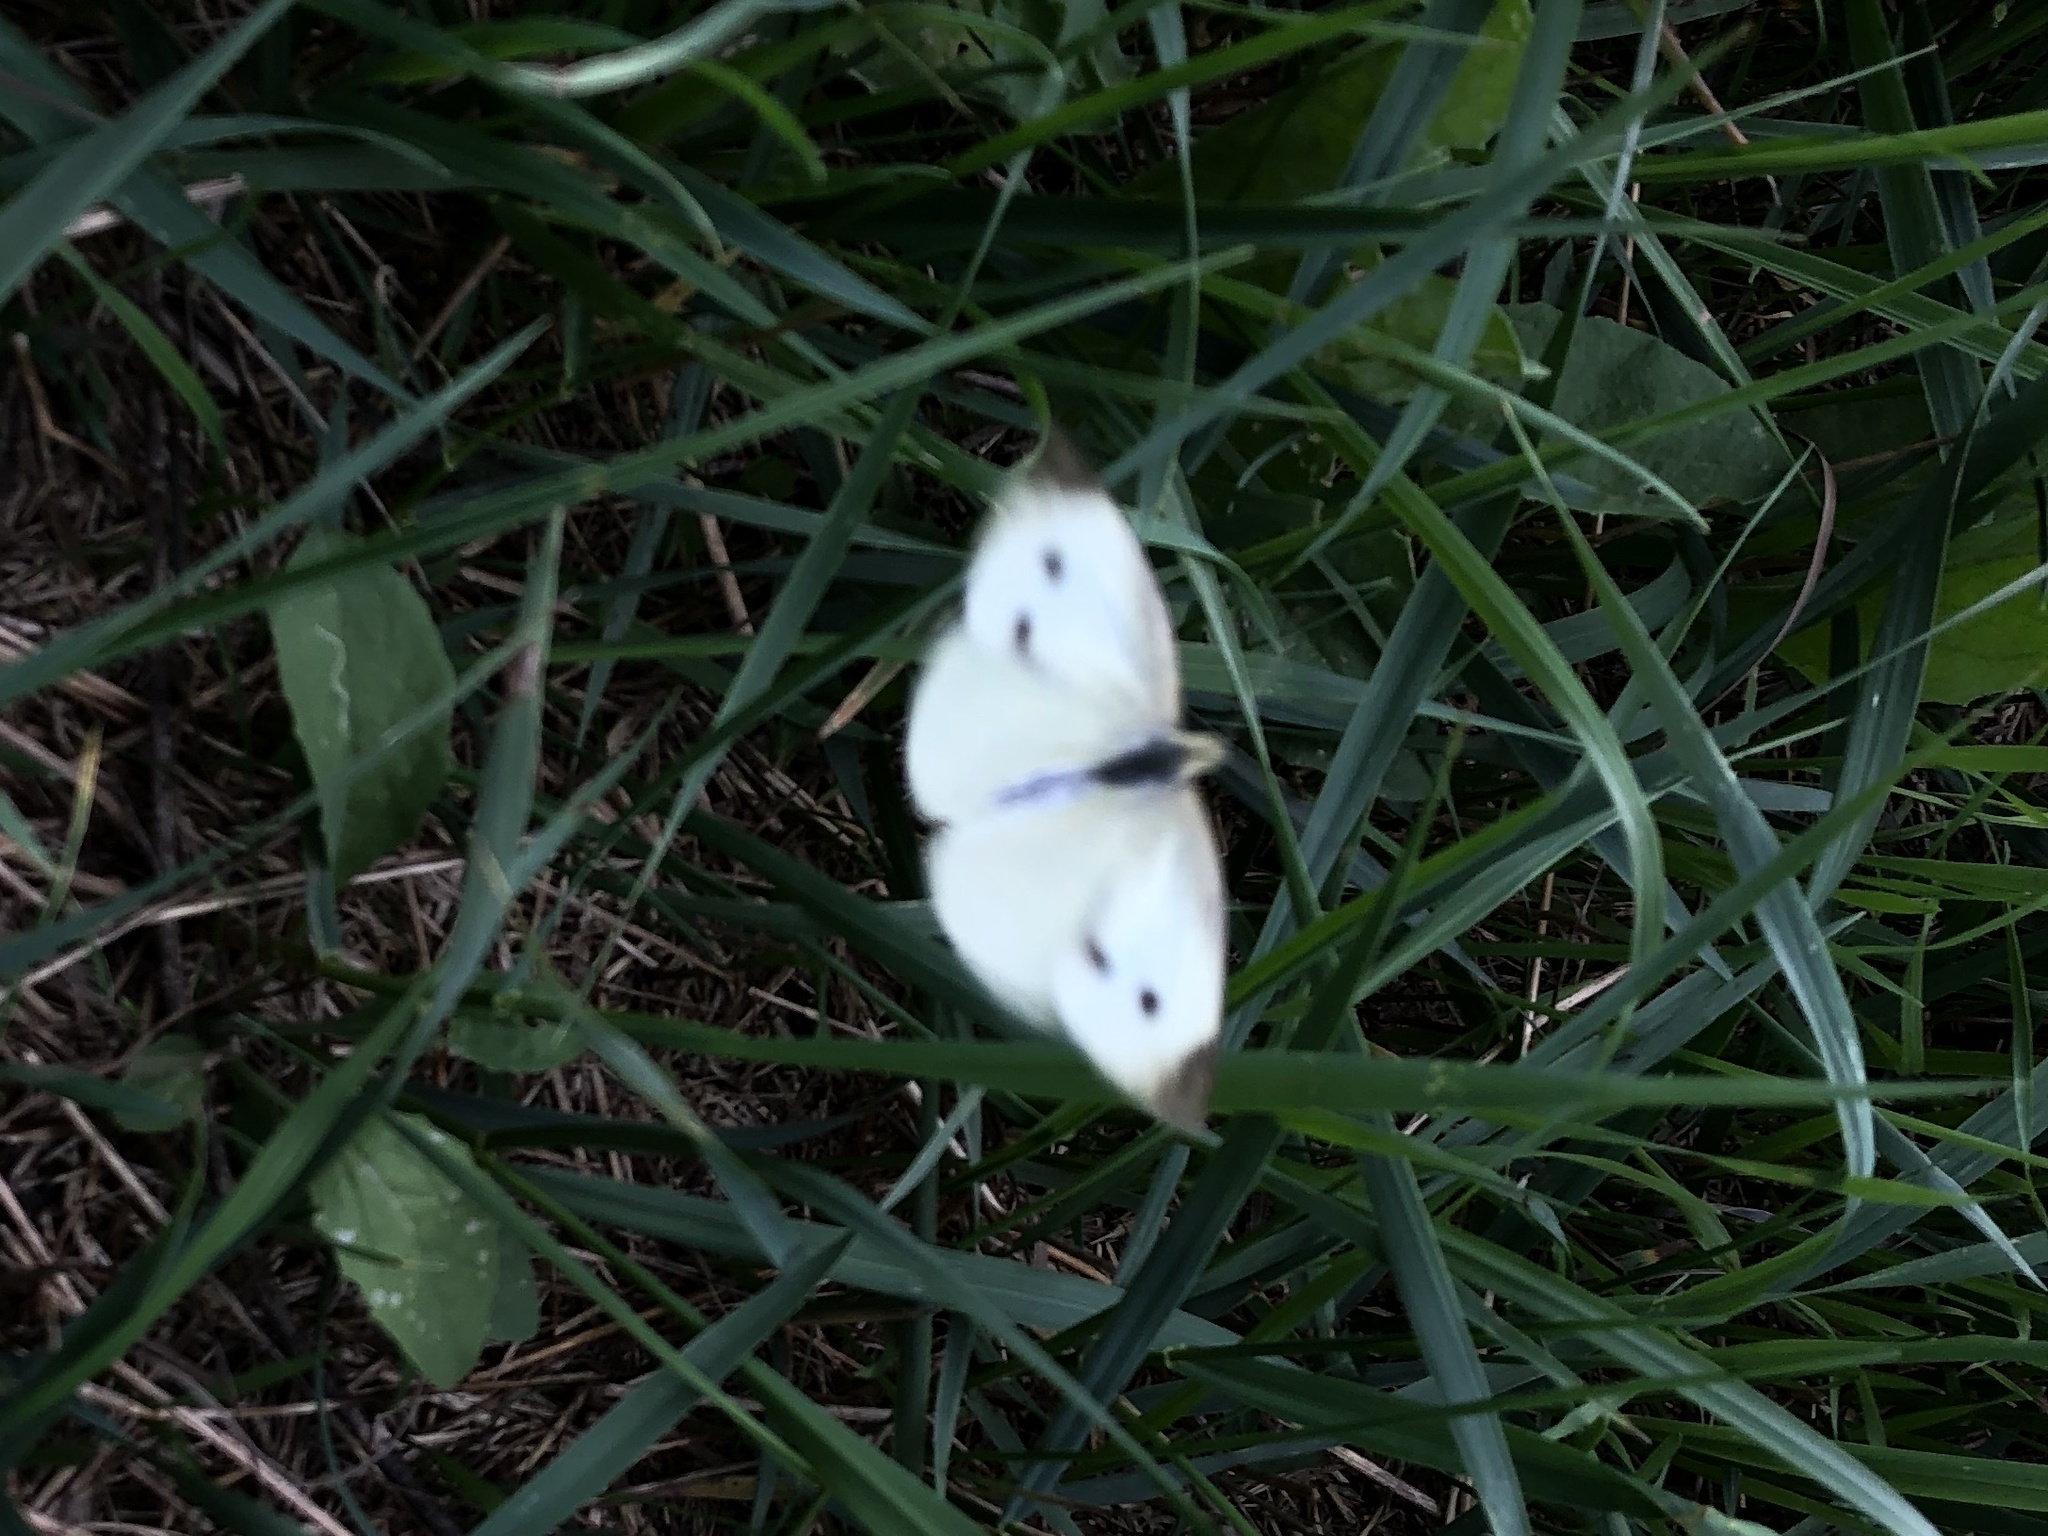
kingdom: Animalia
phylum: Arthropoda
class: Insecta
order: Lepidoptera
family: Pieridae
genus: Pieris
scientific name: Pieris rapae
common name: Small white
